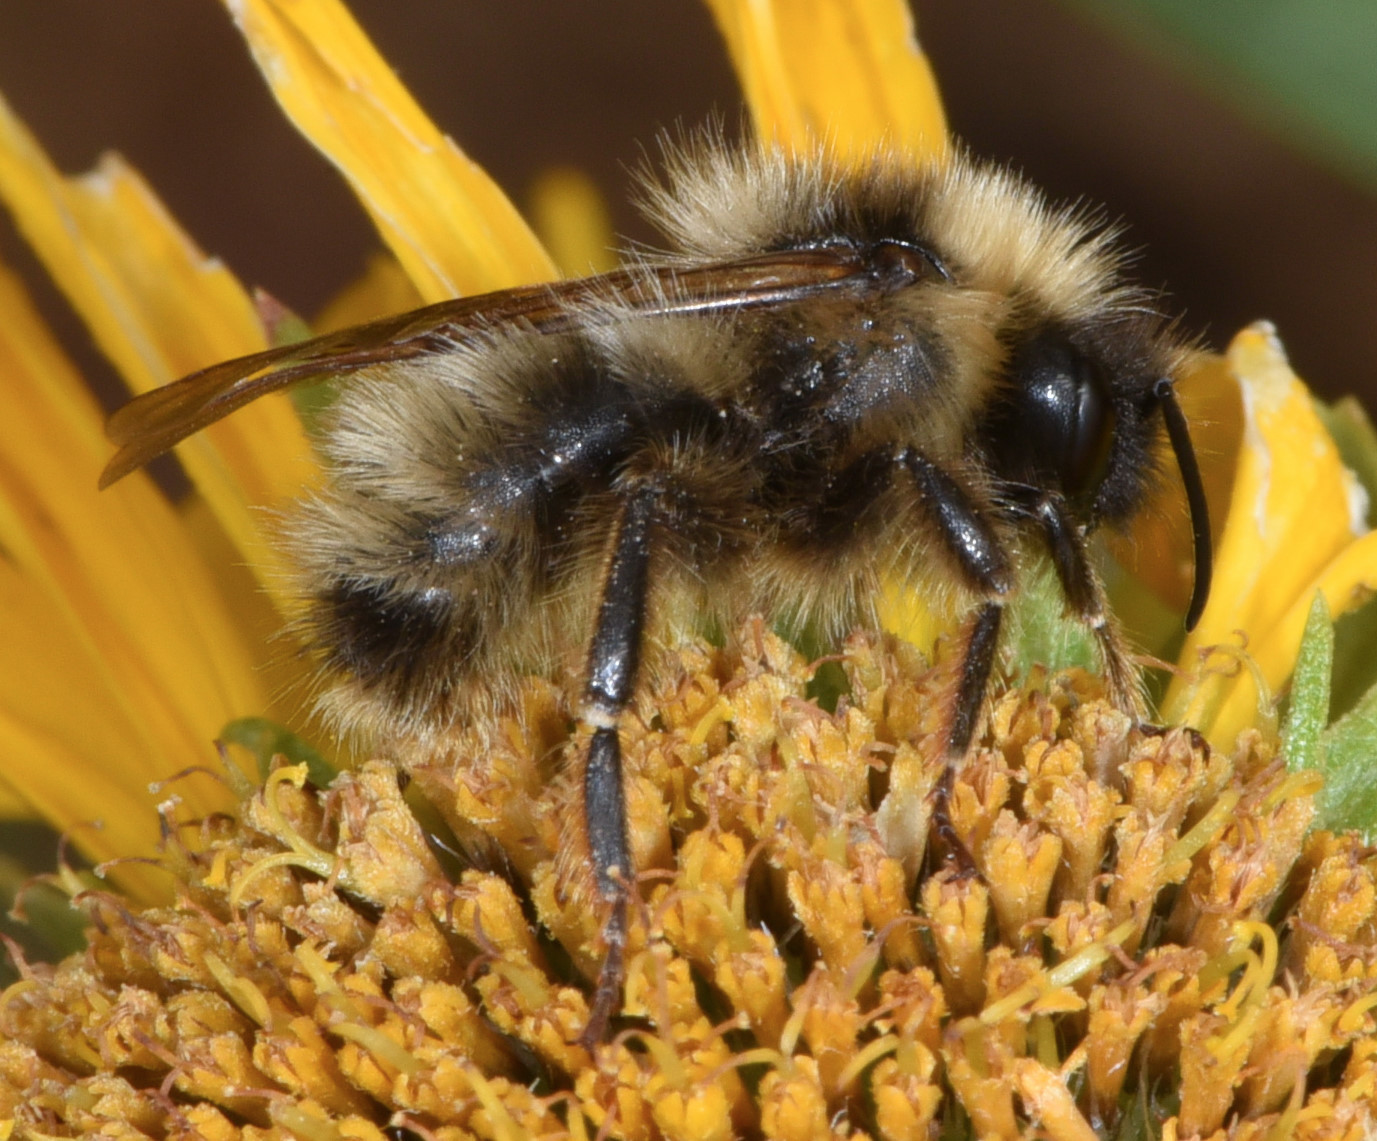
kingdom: Animalia
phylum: Arthropoda
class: Insecta
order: Hymenoptera
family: Apidae
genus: Bombus
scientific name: Bombus flavidus
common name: Fernald cuckoo bumble bee
